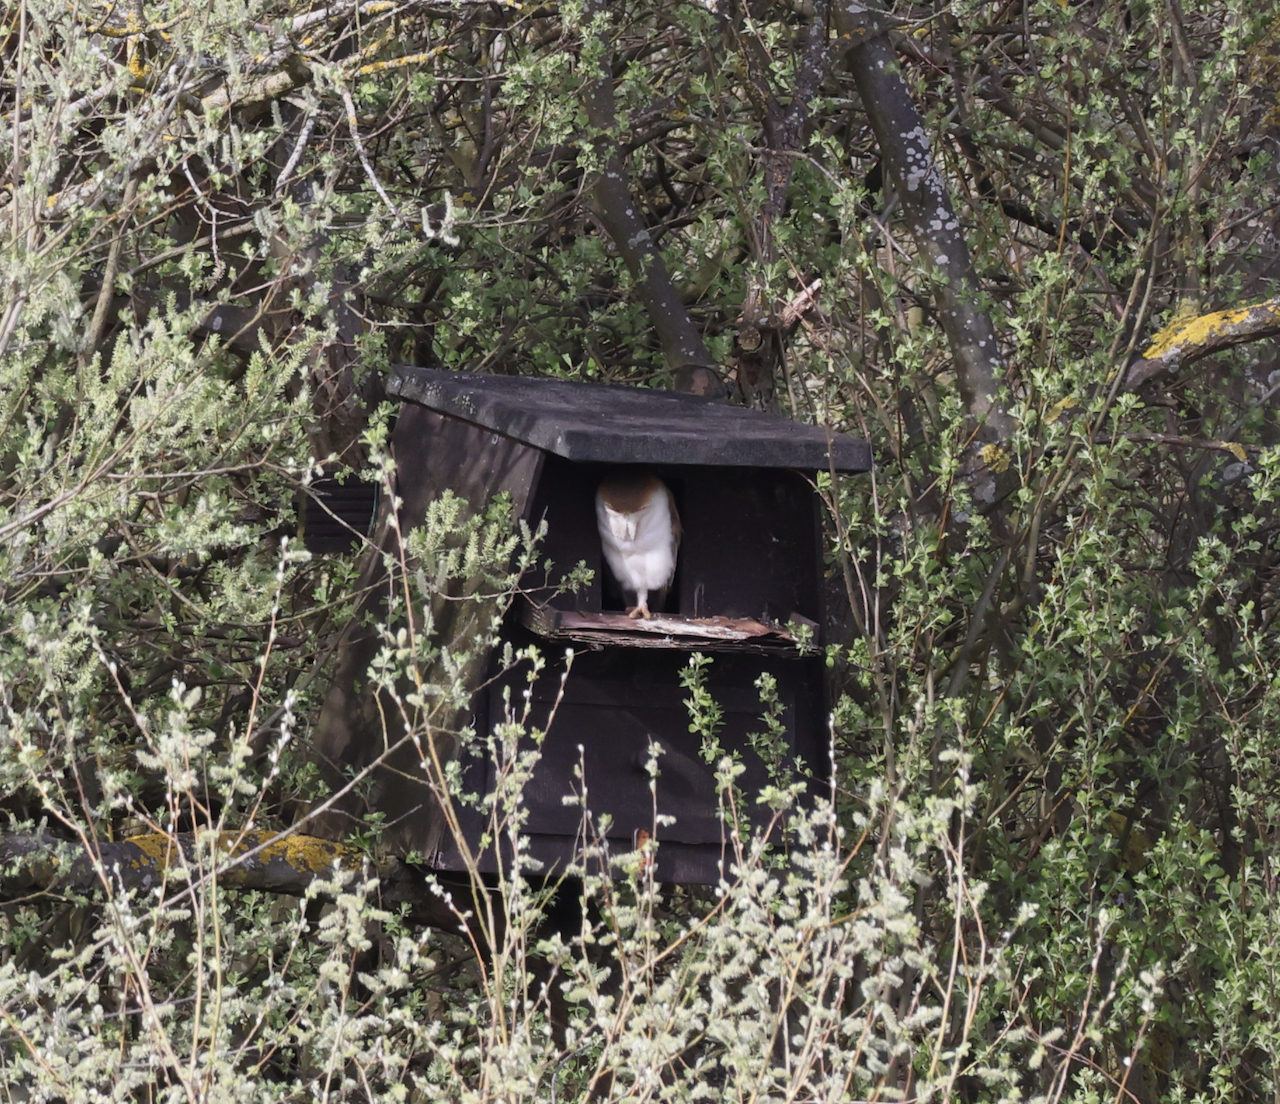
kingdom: Animalia
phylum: Chordata
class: Aves
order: Strigiformes
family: Tytonidae
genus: Tyto
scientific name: Tyto alba
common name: Barn owl
